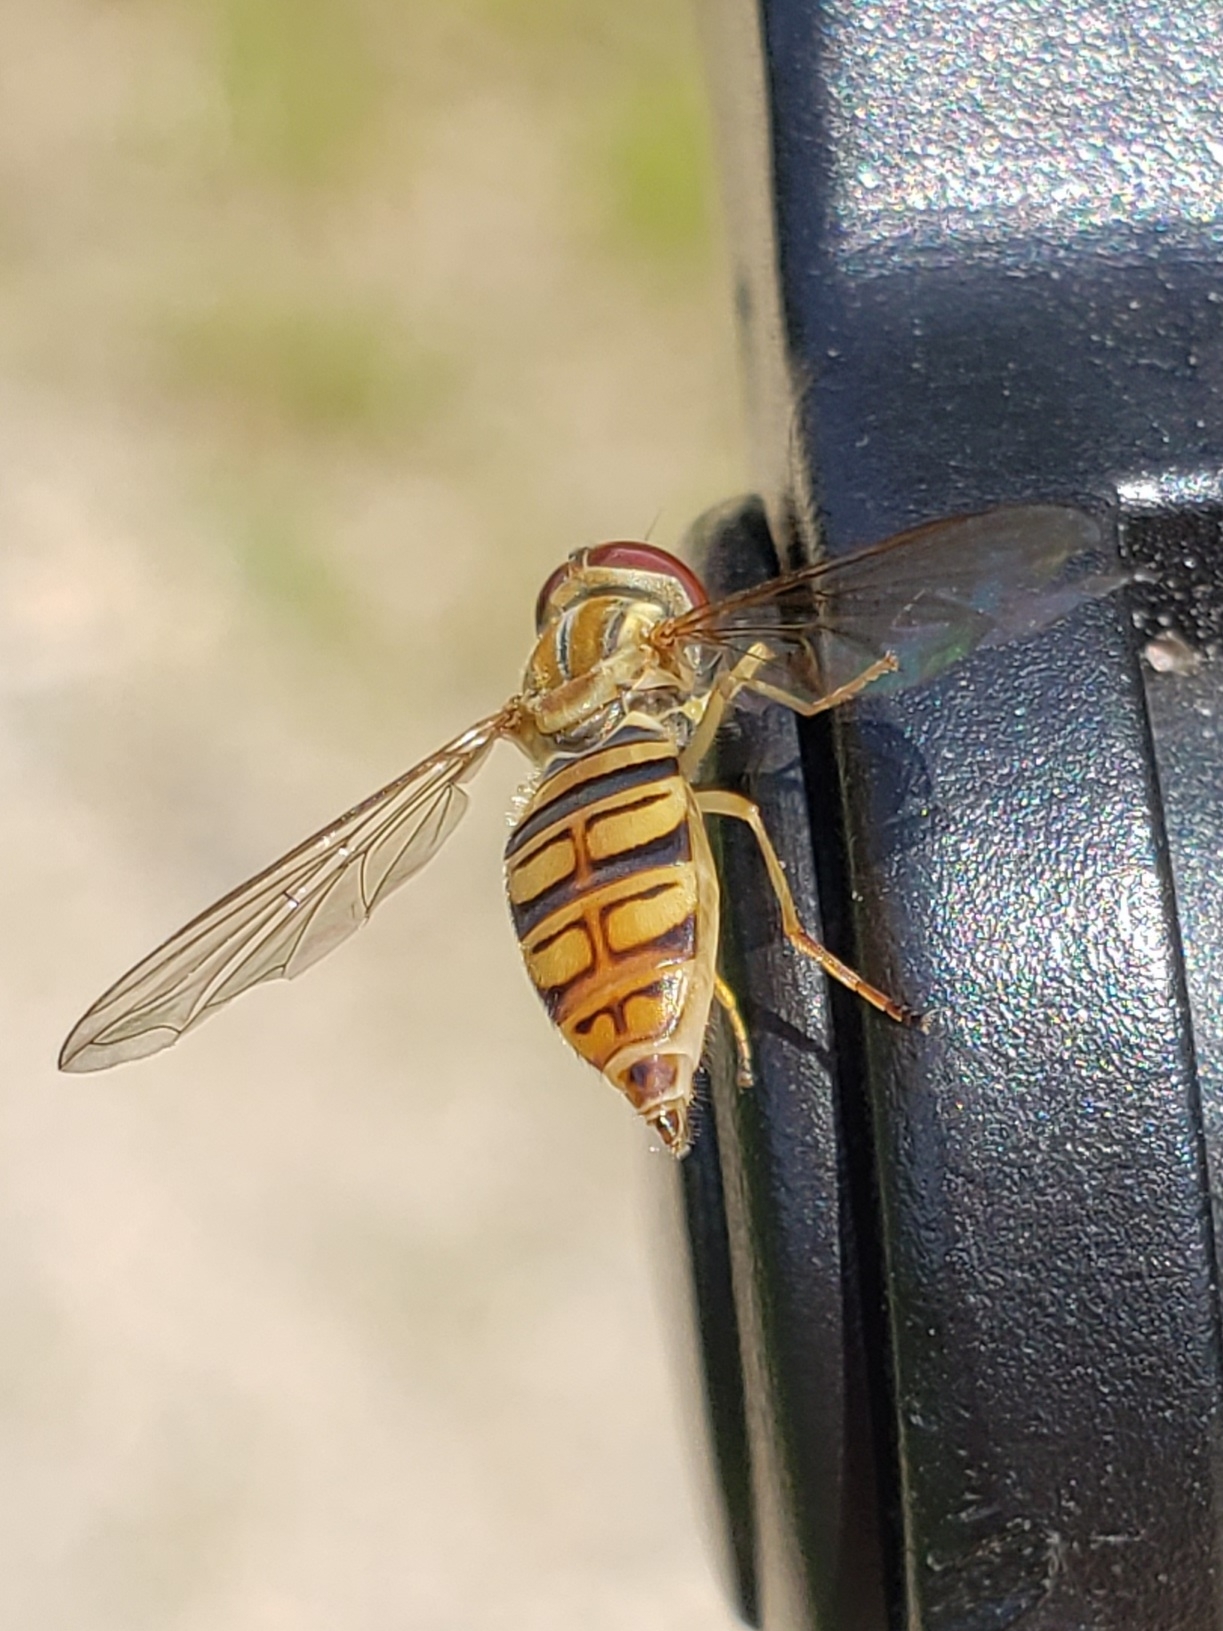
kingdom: Animalia
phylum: Arthropoda
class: Insecta
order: Diptera
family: Syrphidae
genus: Toxomerus
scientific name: Toxomerus politus
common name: Maize calligrapher
